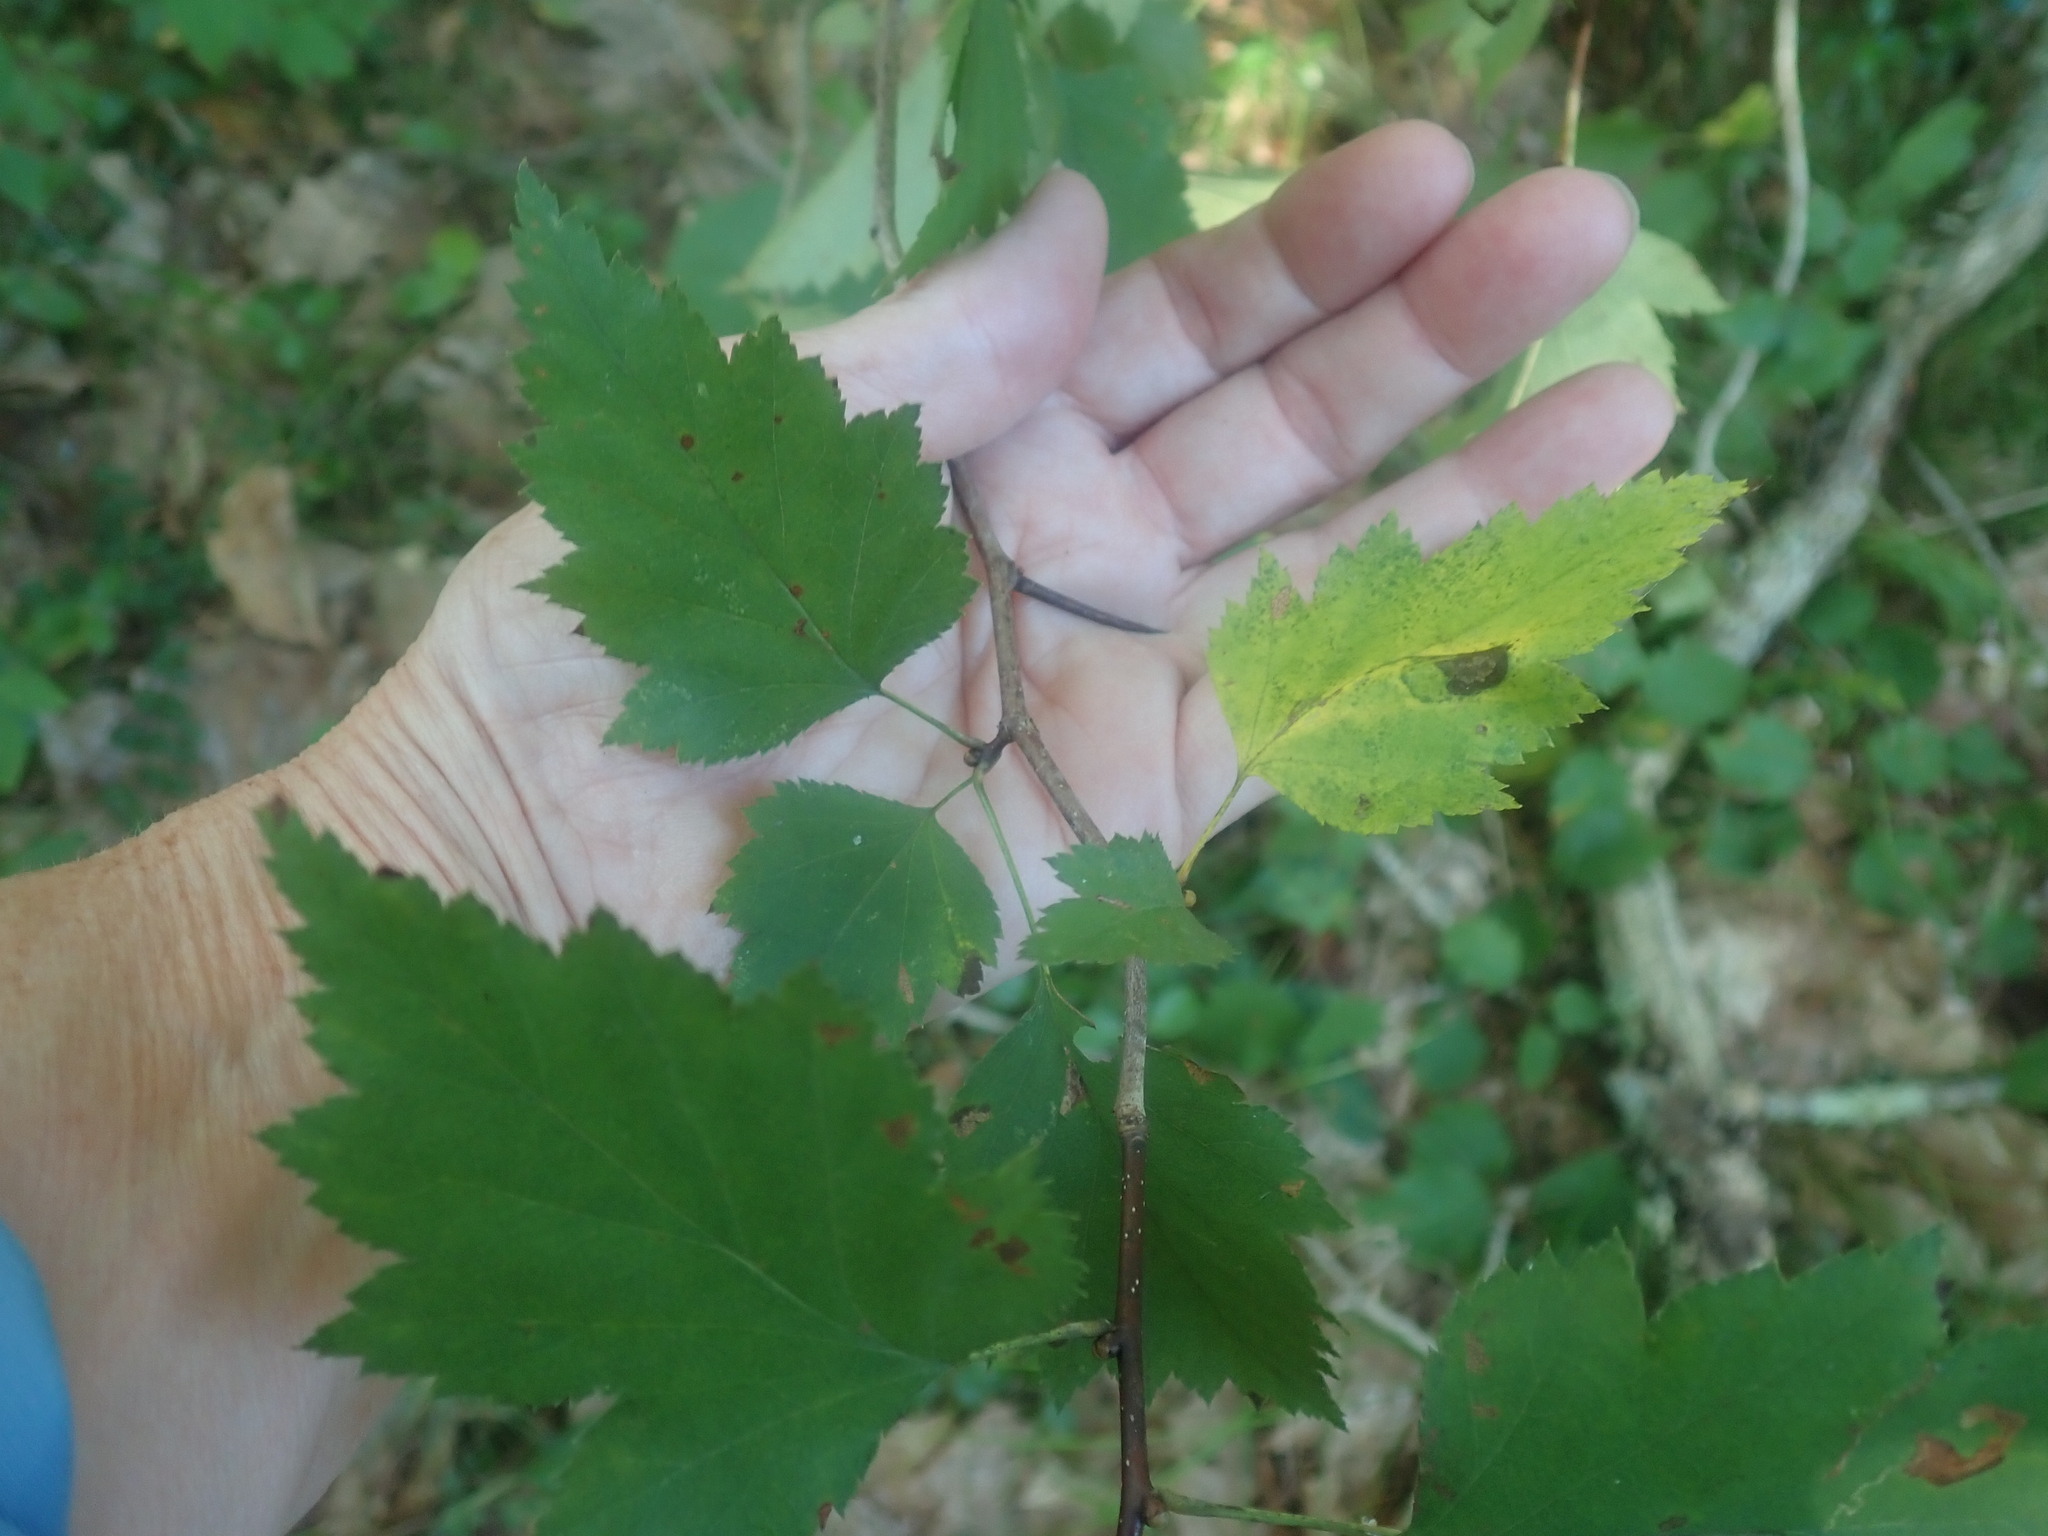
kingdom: Plantae
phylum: Tracheophyta
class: Magnoliopsida
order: Rosales
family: Rosaceae
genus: Crataegus
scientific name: Crataegus
